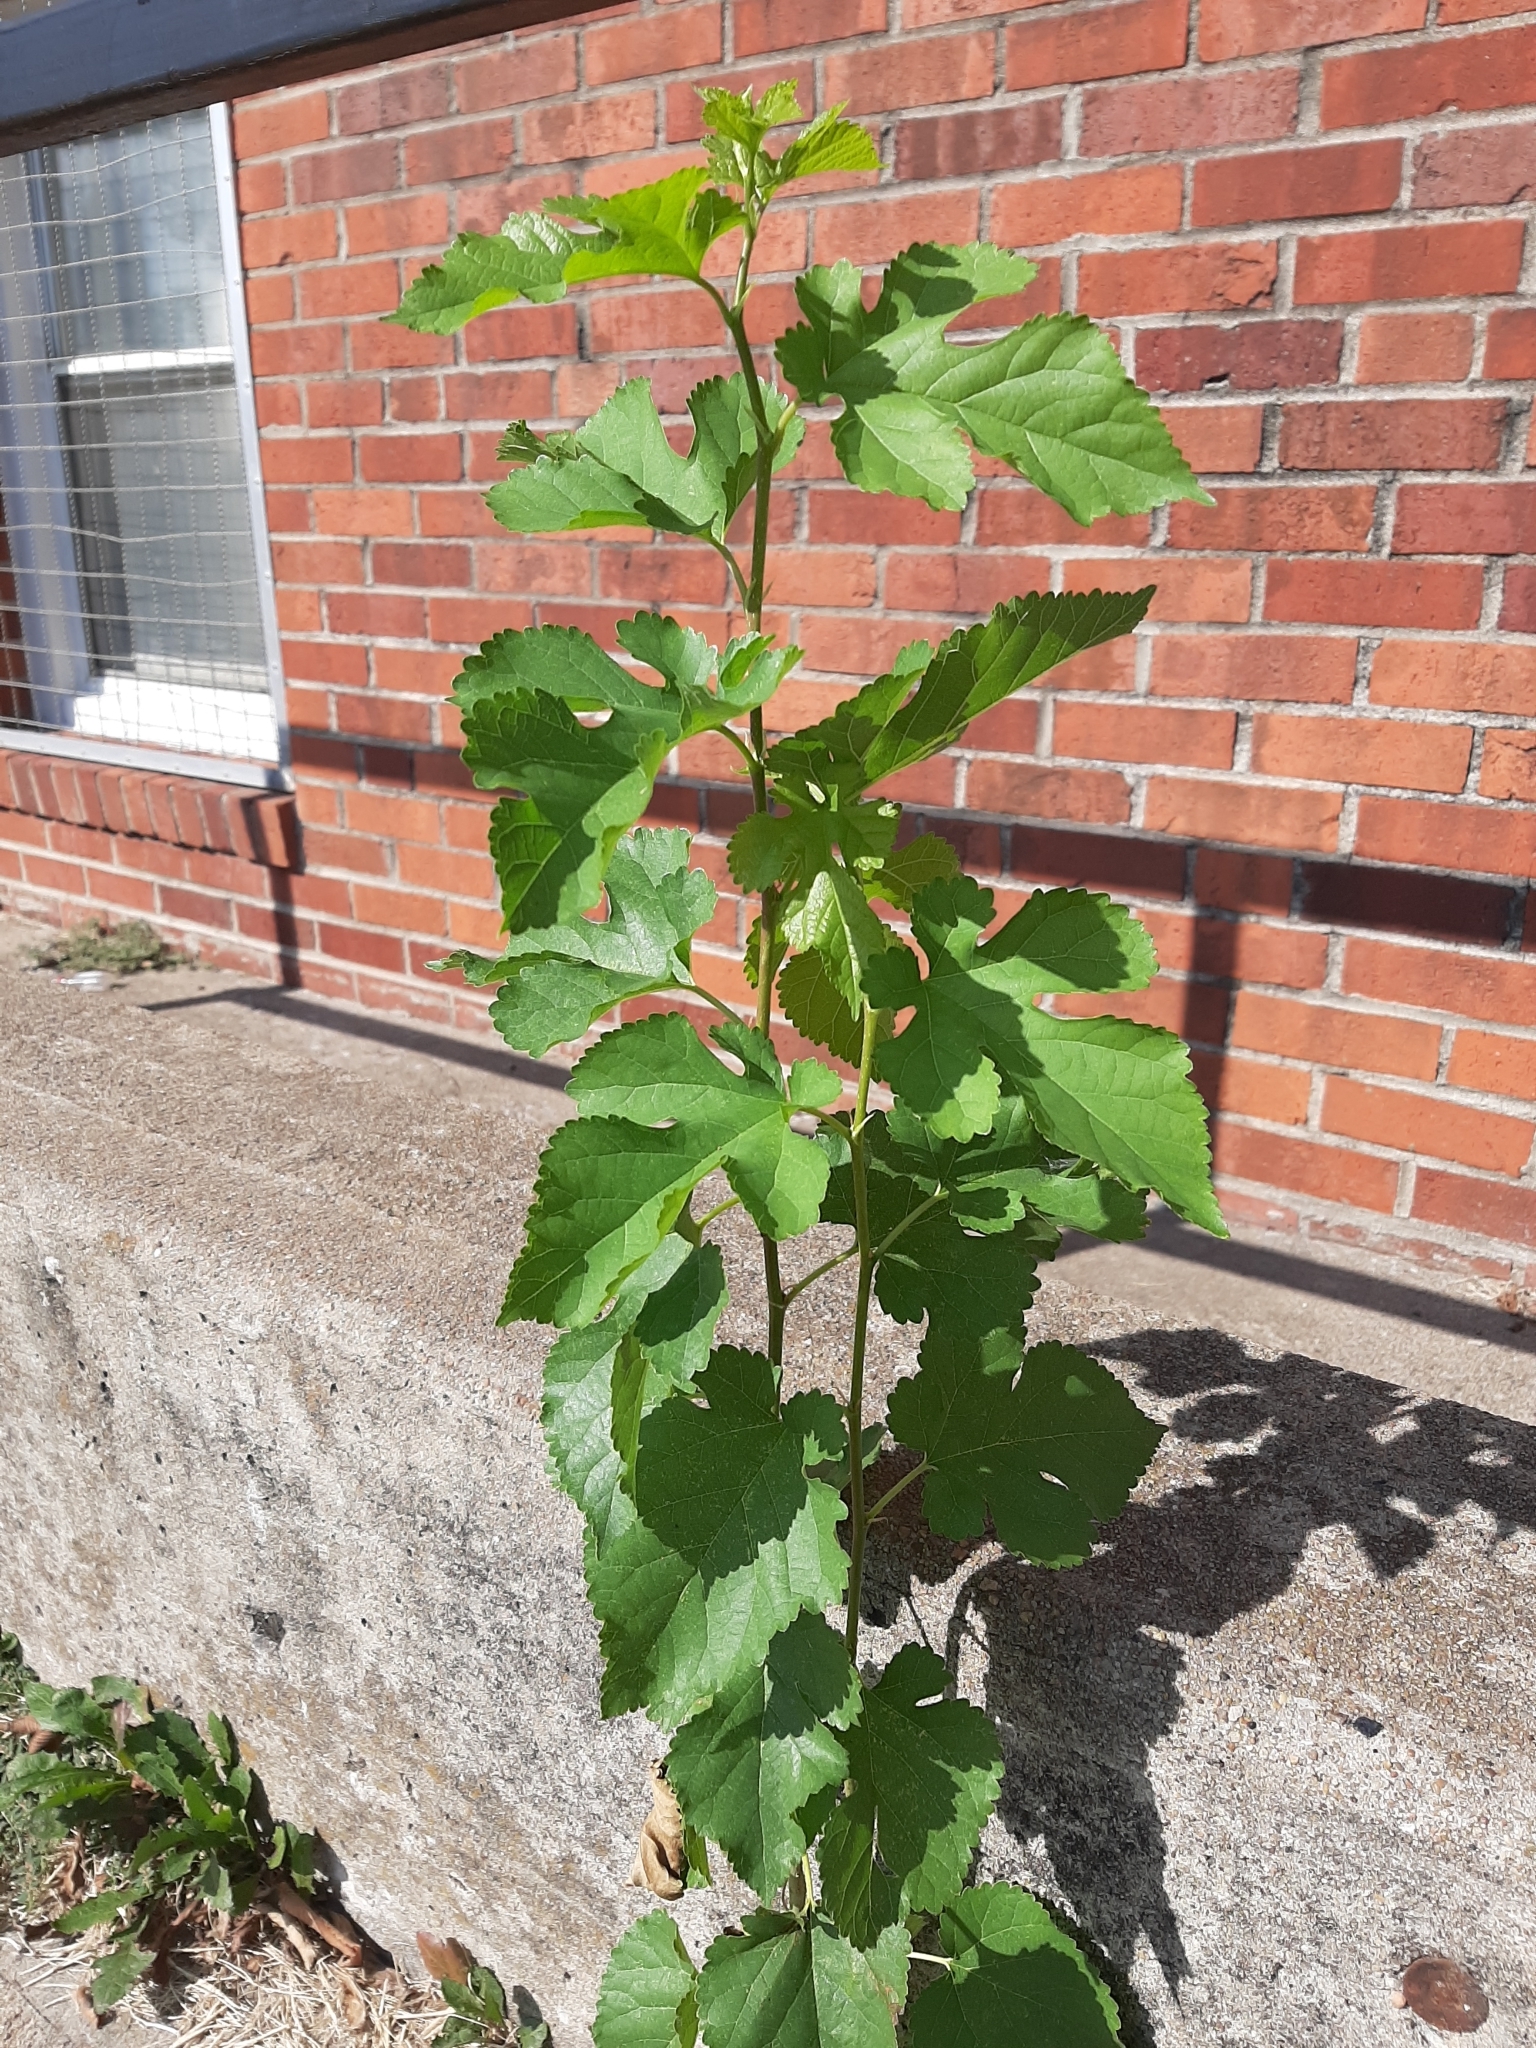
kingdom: Plantae
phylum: Tracheophyta
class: Magnoliopsida
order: Rosales
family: Moraceae
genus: Morus
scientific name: Morus alba
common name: White mulberry
